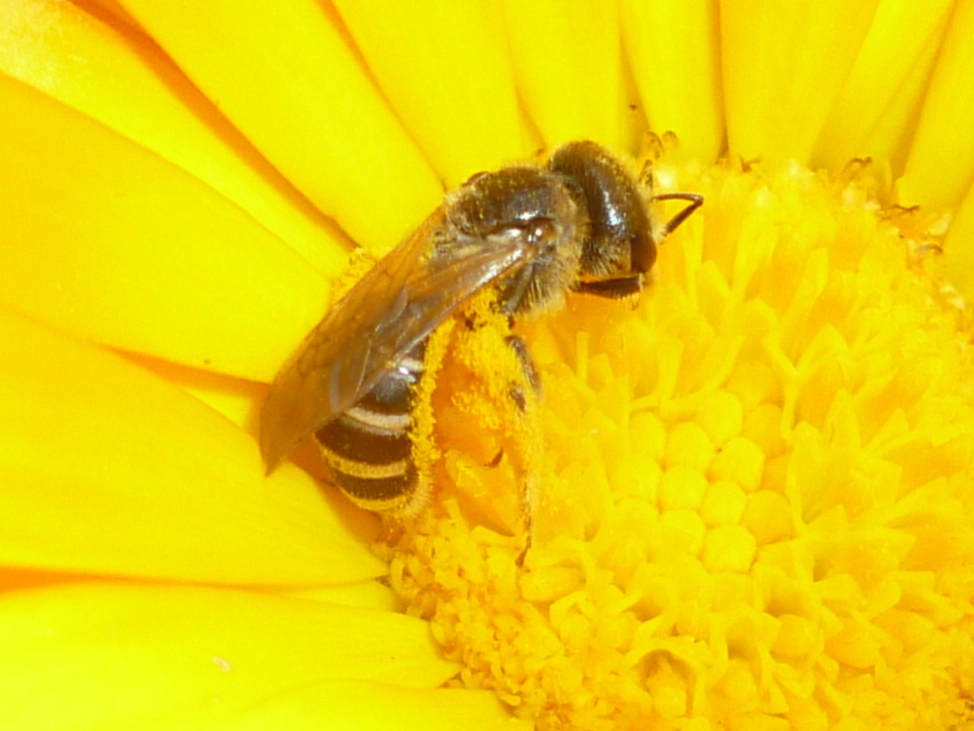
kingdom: Animalia
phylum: Arthropoda
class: Insecta
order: Hymenoptera
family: Halictidae
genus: Halictus
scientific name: Halictus ligatus
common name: Ligated furrow bee
